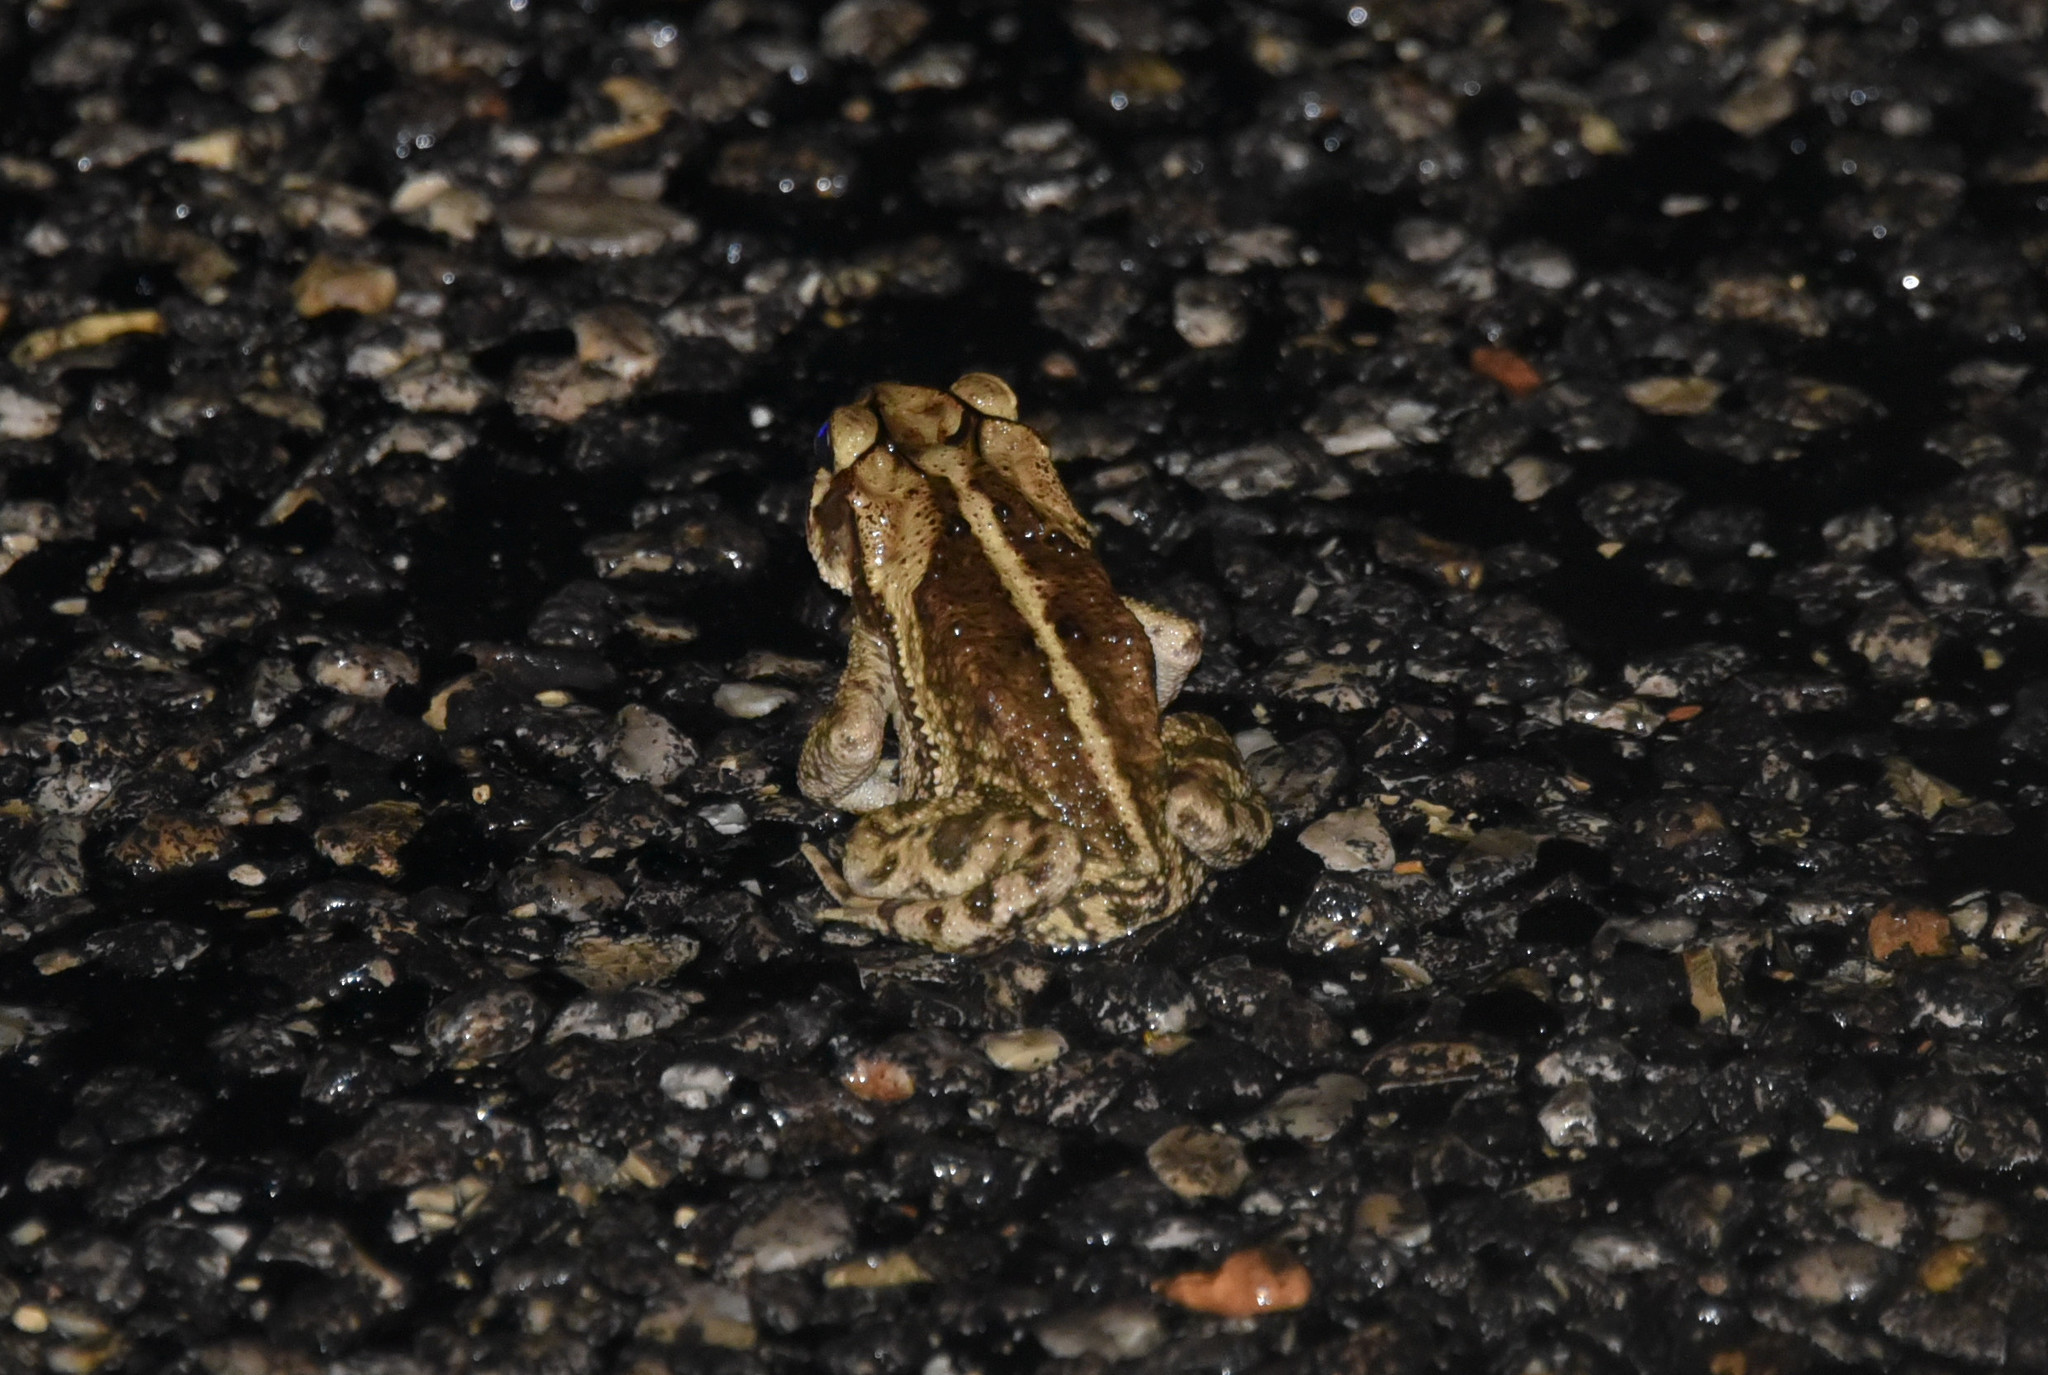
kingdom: Animalia
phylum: Chordata
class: Amphibia
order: Anura
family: Bufonidae
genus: Incilius
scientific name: Incilius nebulifer
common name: Gulf coast toad
